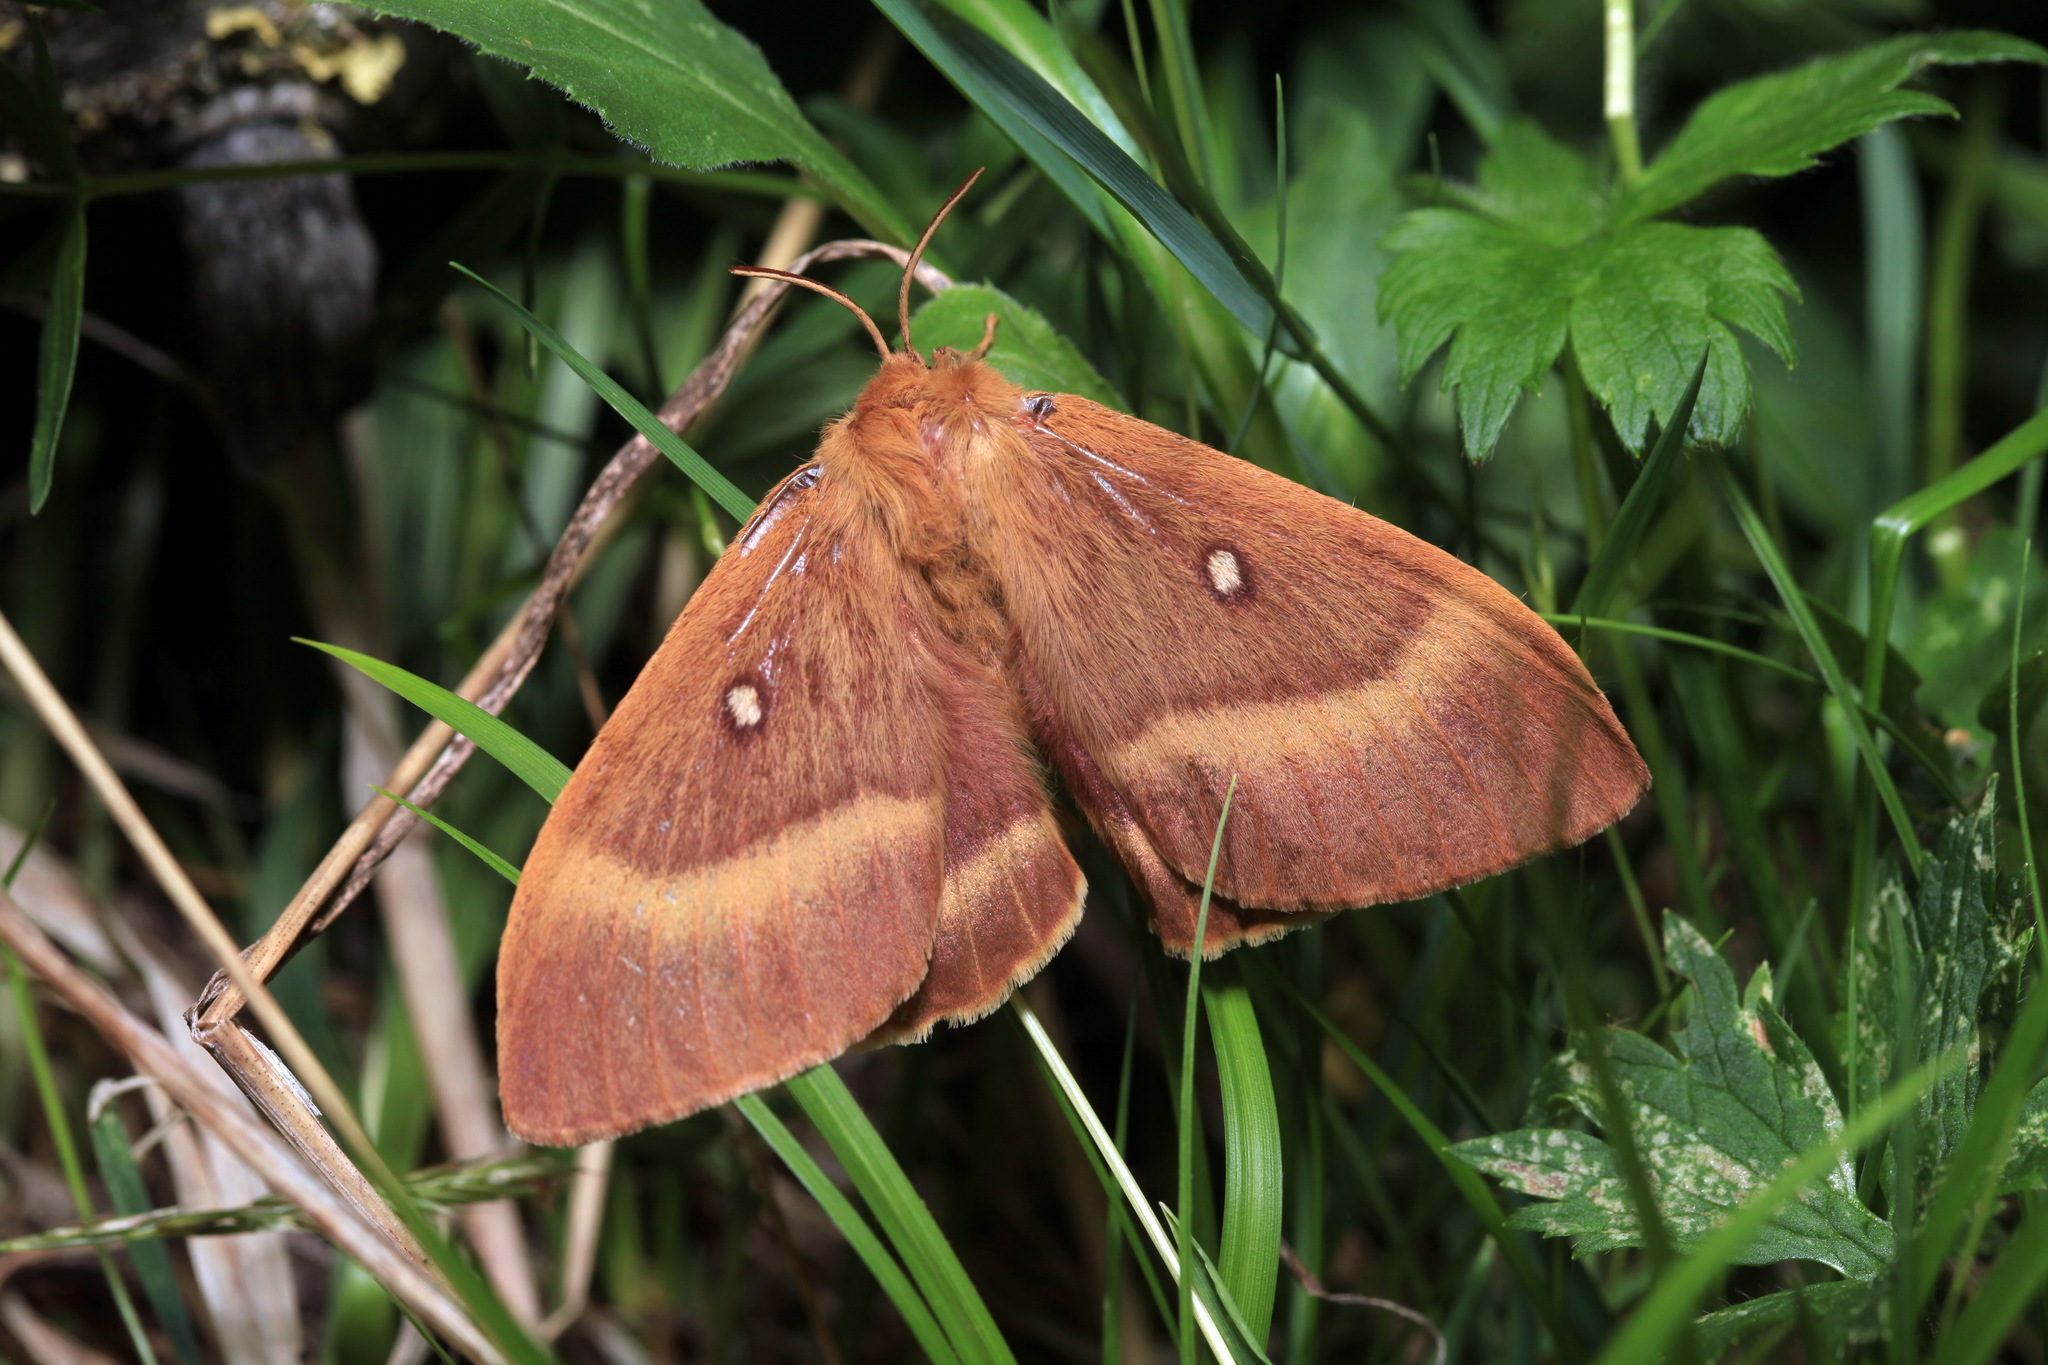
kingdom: Animalia
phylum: Arthropoda
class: Insecta
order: Lepidoptera
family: Lasiocampidae
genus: Lasiocampa
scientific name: Lasiocampa quercus
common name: Oak eggar
